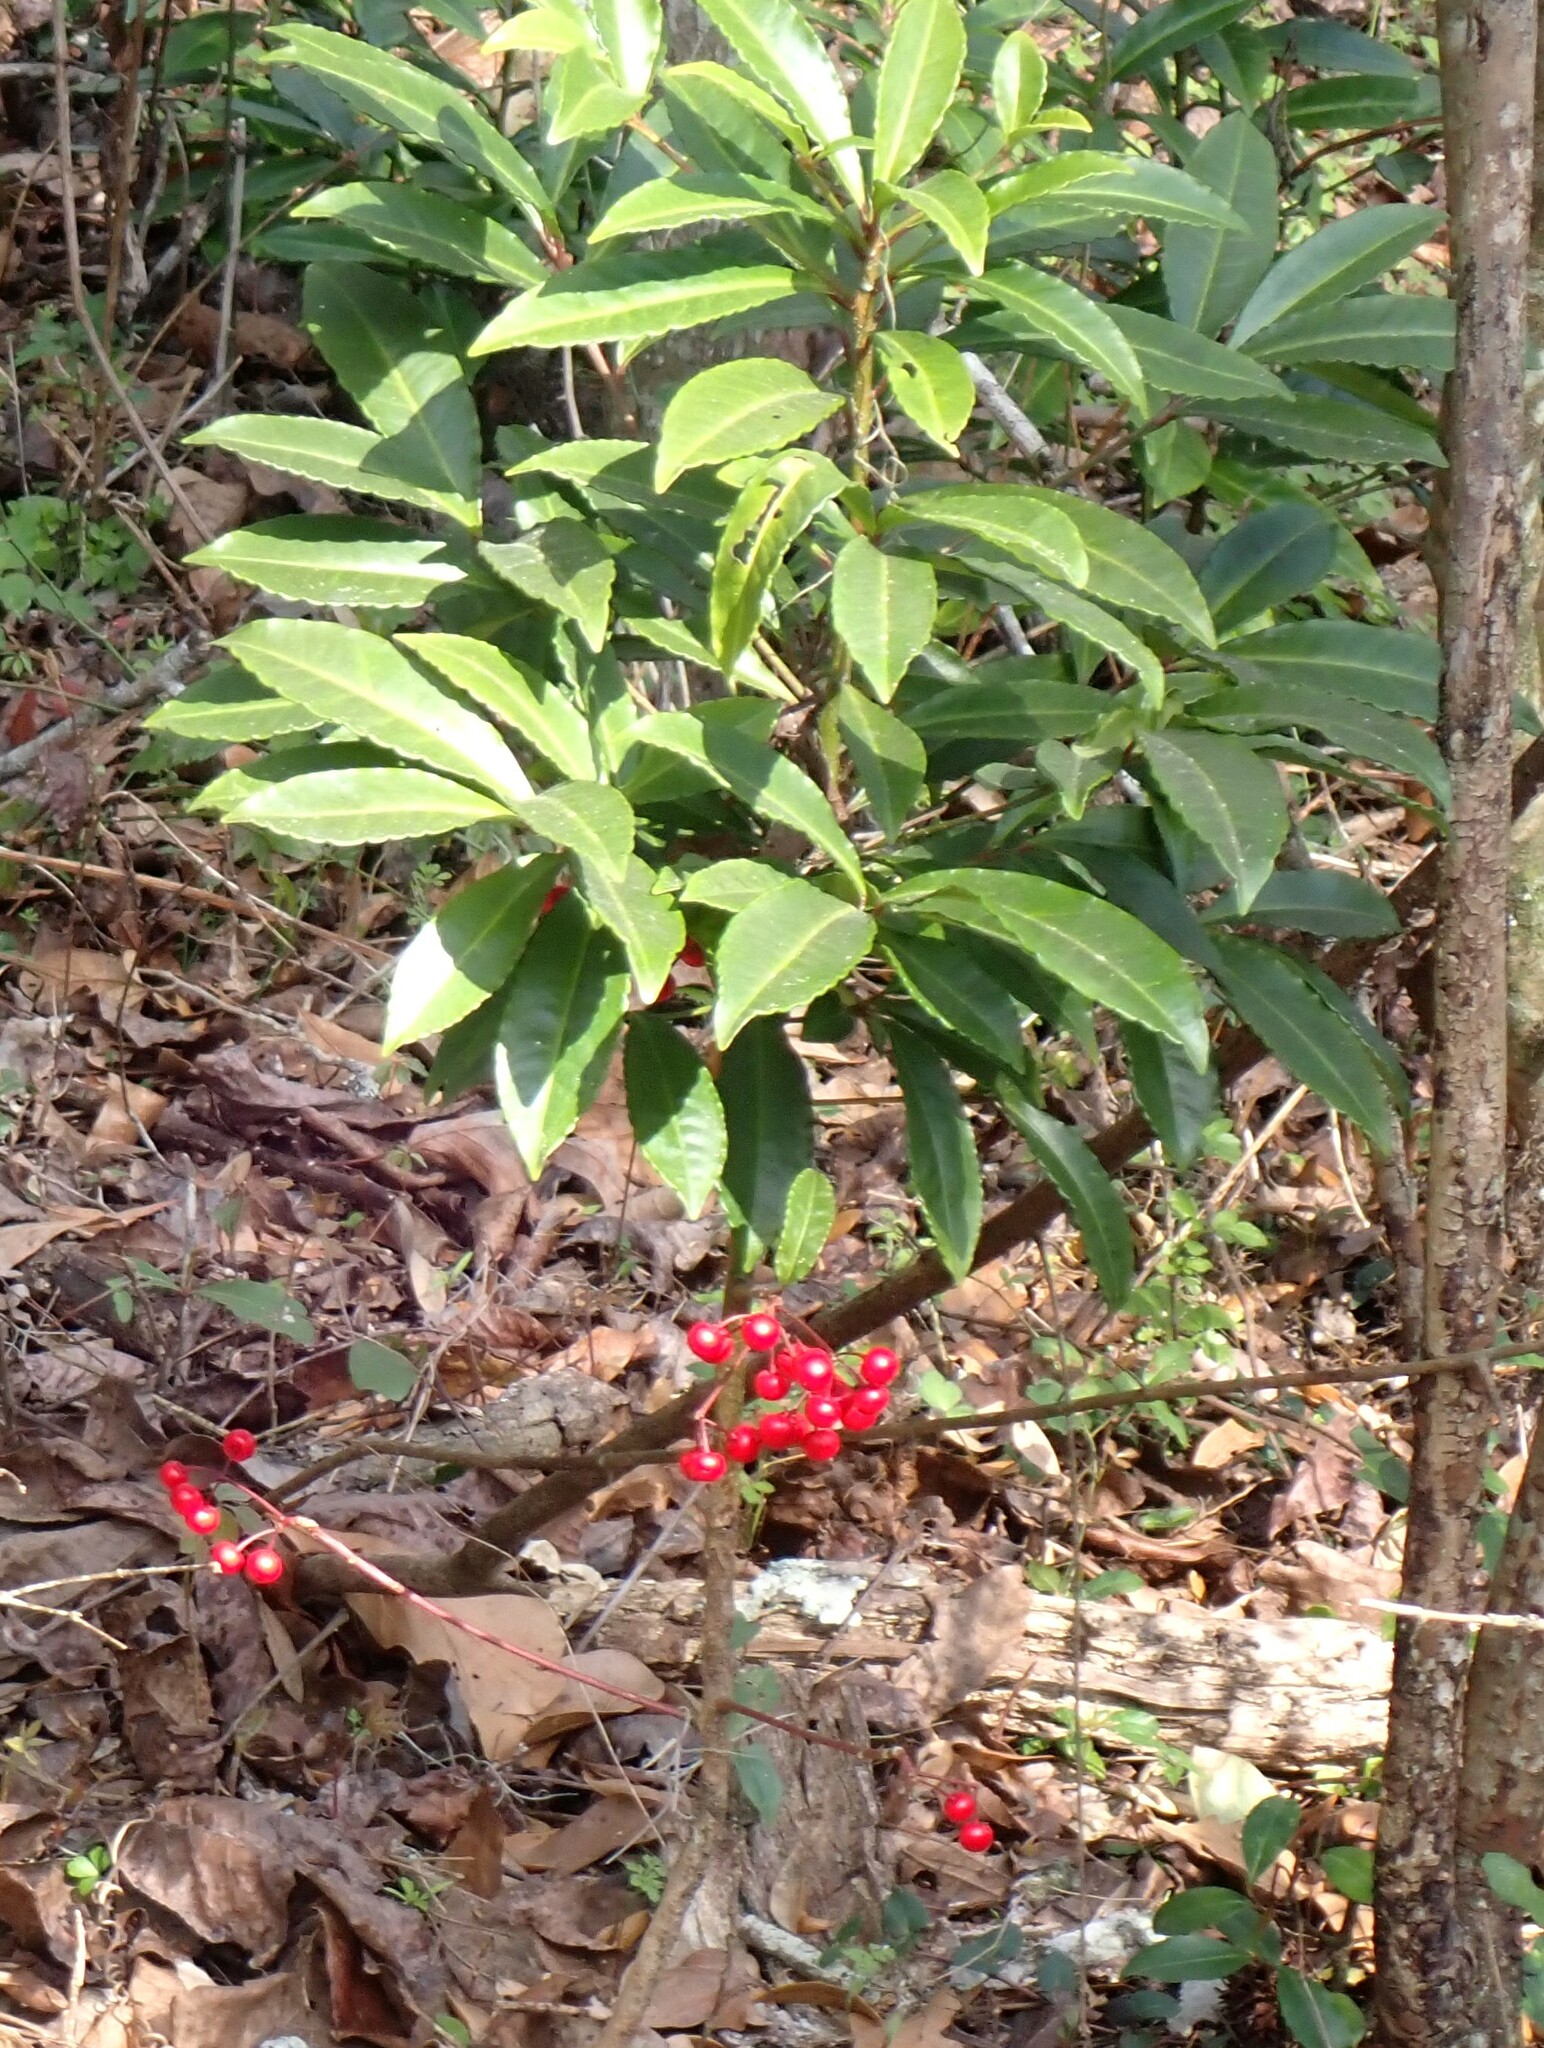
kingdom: Plantae
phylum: Tracheophyta
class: Magnoliopsida
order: Ericales
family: Primulaceae
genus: Ardisia
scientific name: Ardisia crenata
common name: Hen's eyes
